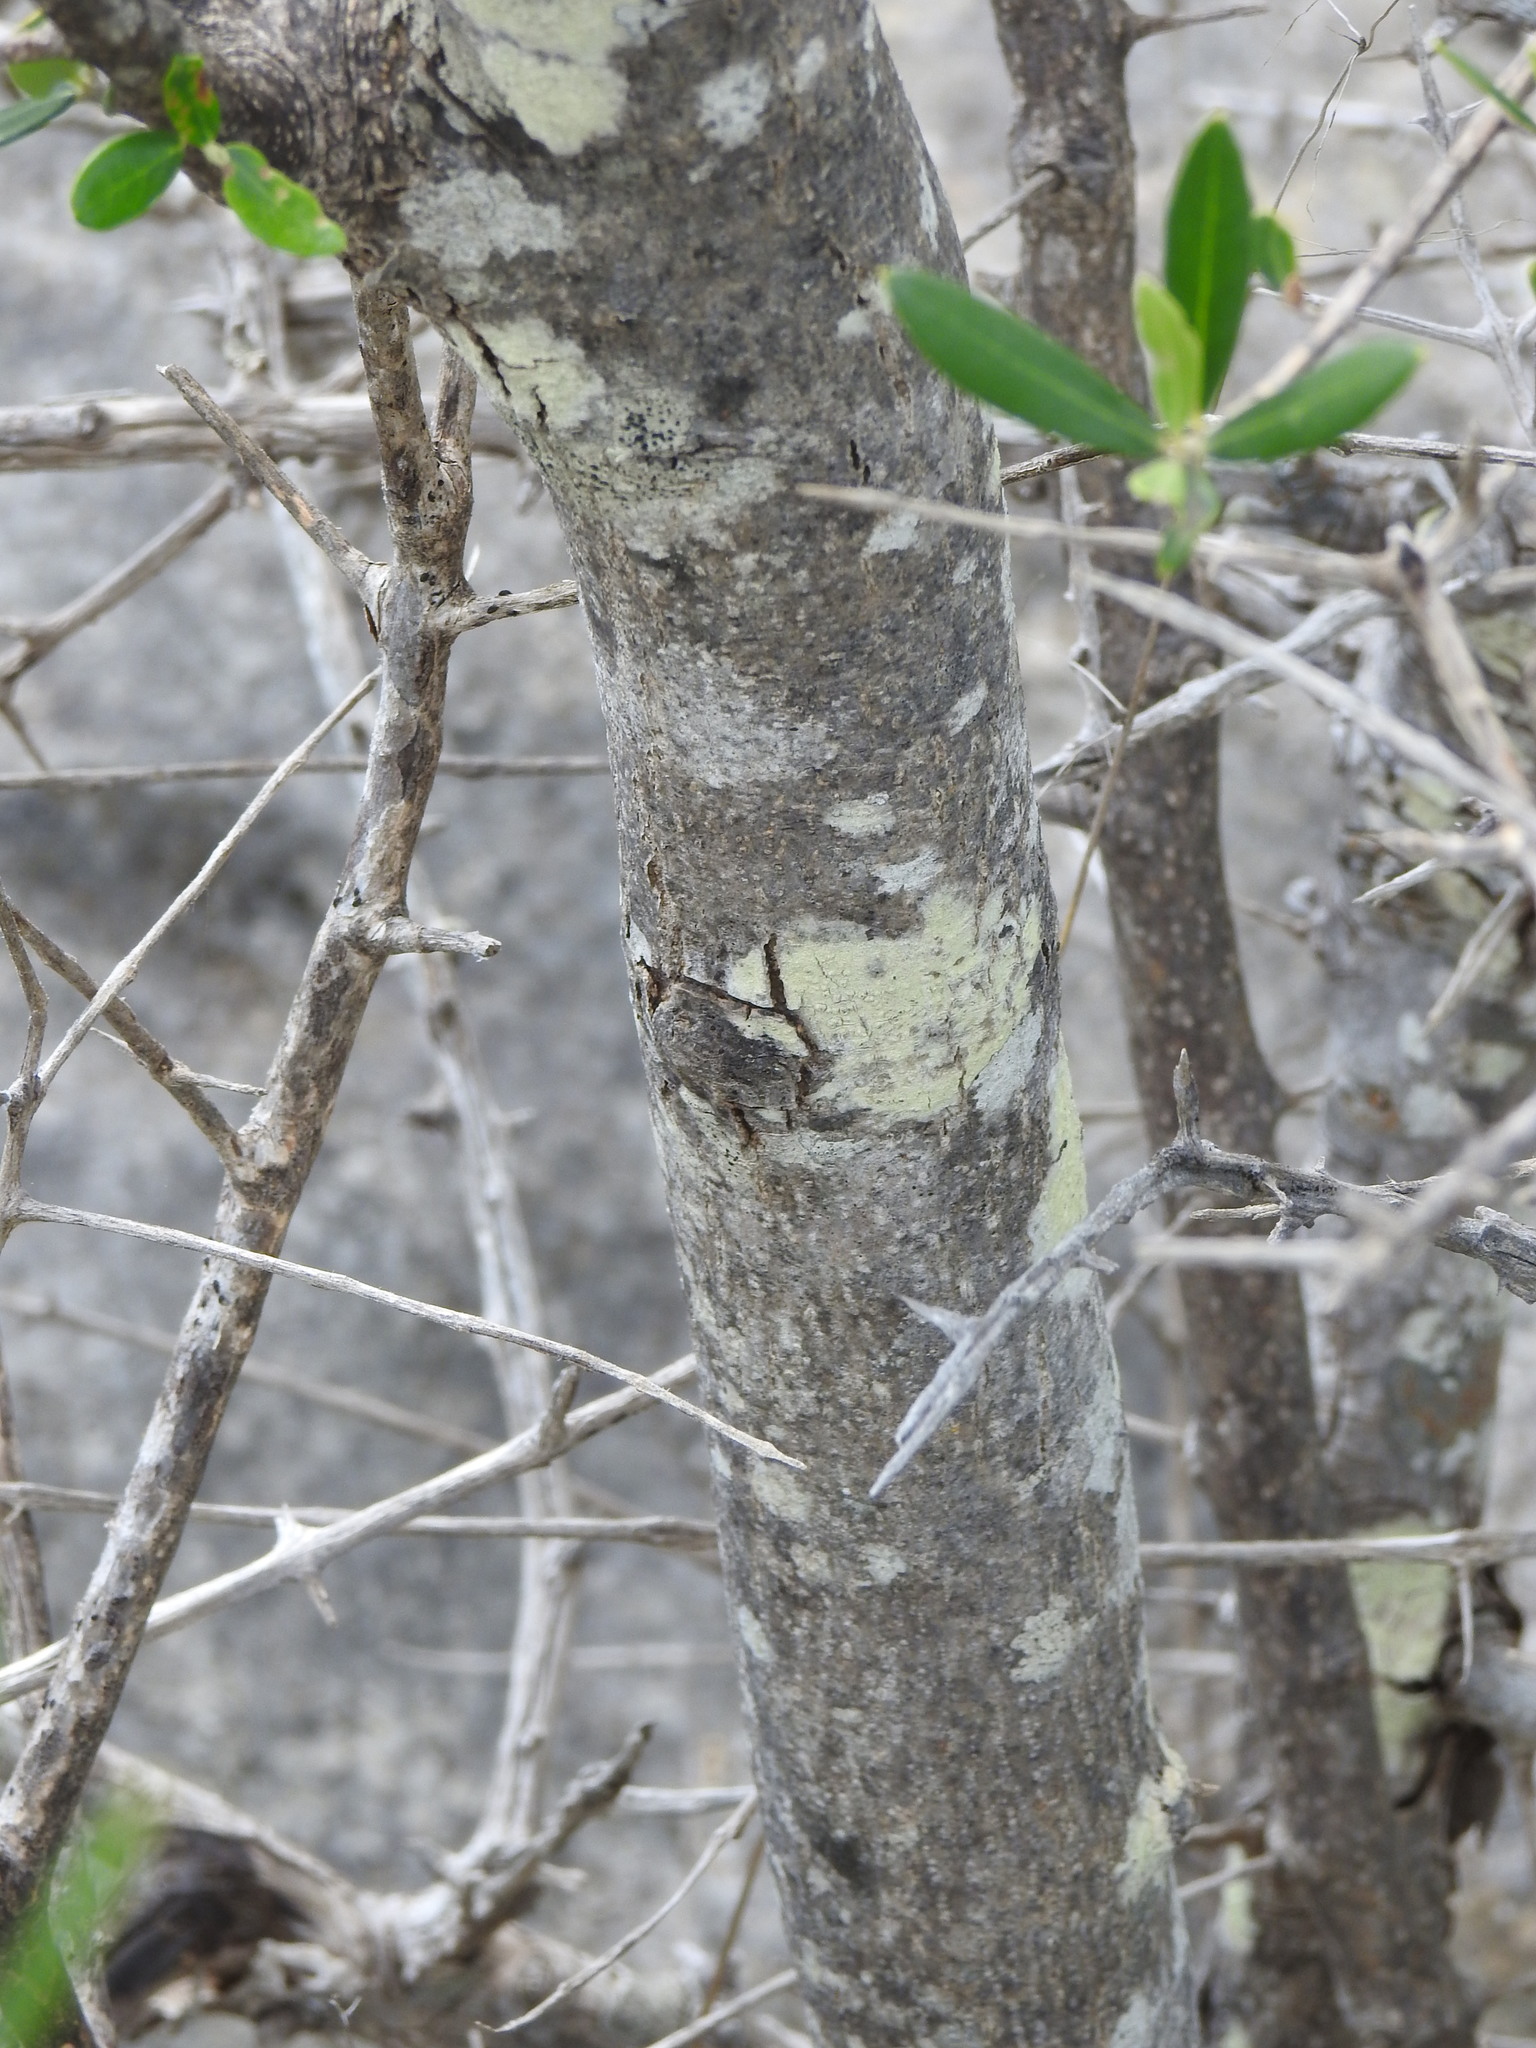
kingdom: Plantae
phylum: Tracheophyta
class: Magnoliopsida
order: Lamiales
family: Oleaceae
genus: Olea
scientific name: Olea europaea
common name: Olive
